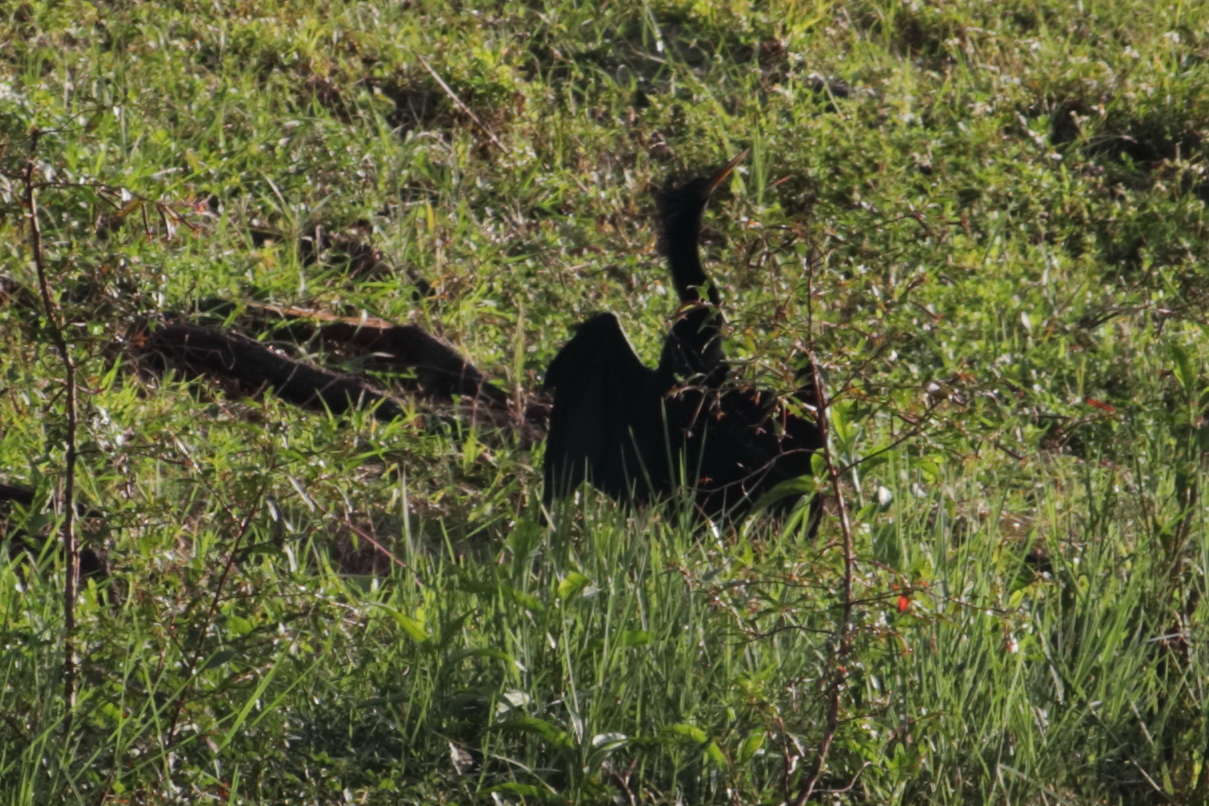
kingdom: Animalia
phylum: Chordata
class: Aves
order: Suliformes
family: Anhingidae
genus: Anhinga
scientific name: Anhinga anhinga
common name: Anhinga
